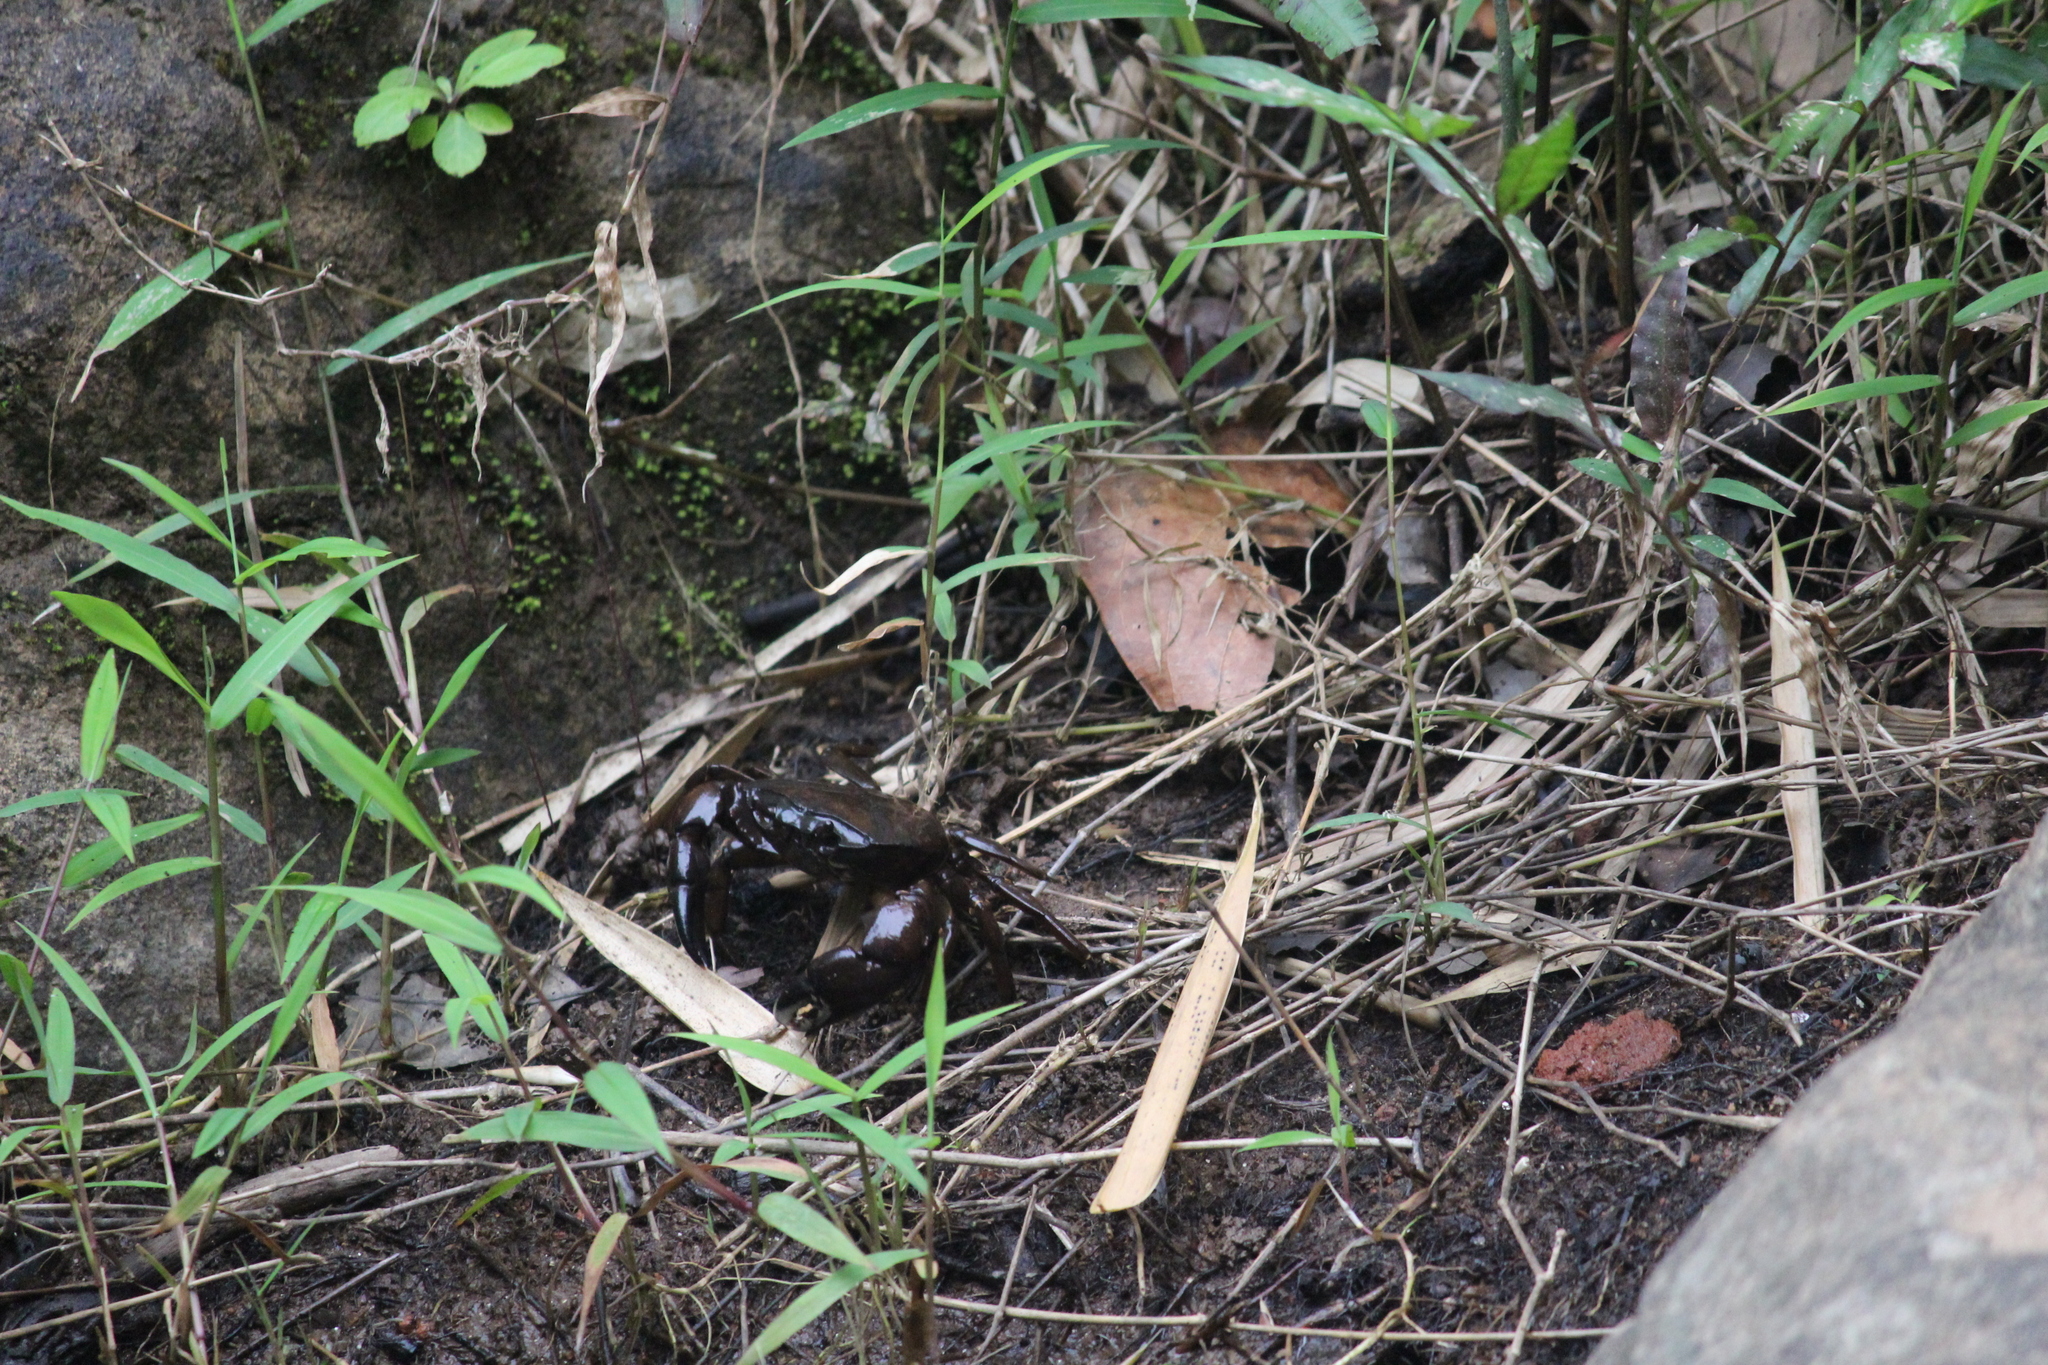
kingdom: Animalia
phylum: Arthropoda
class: Malacostraca
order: Decapoda
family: Gecarcinucidae
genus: Barytelphusa
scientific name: Barytelphusa cunicularis
